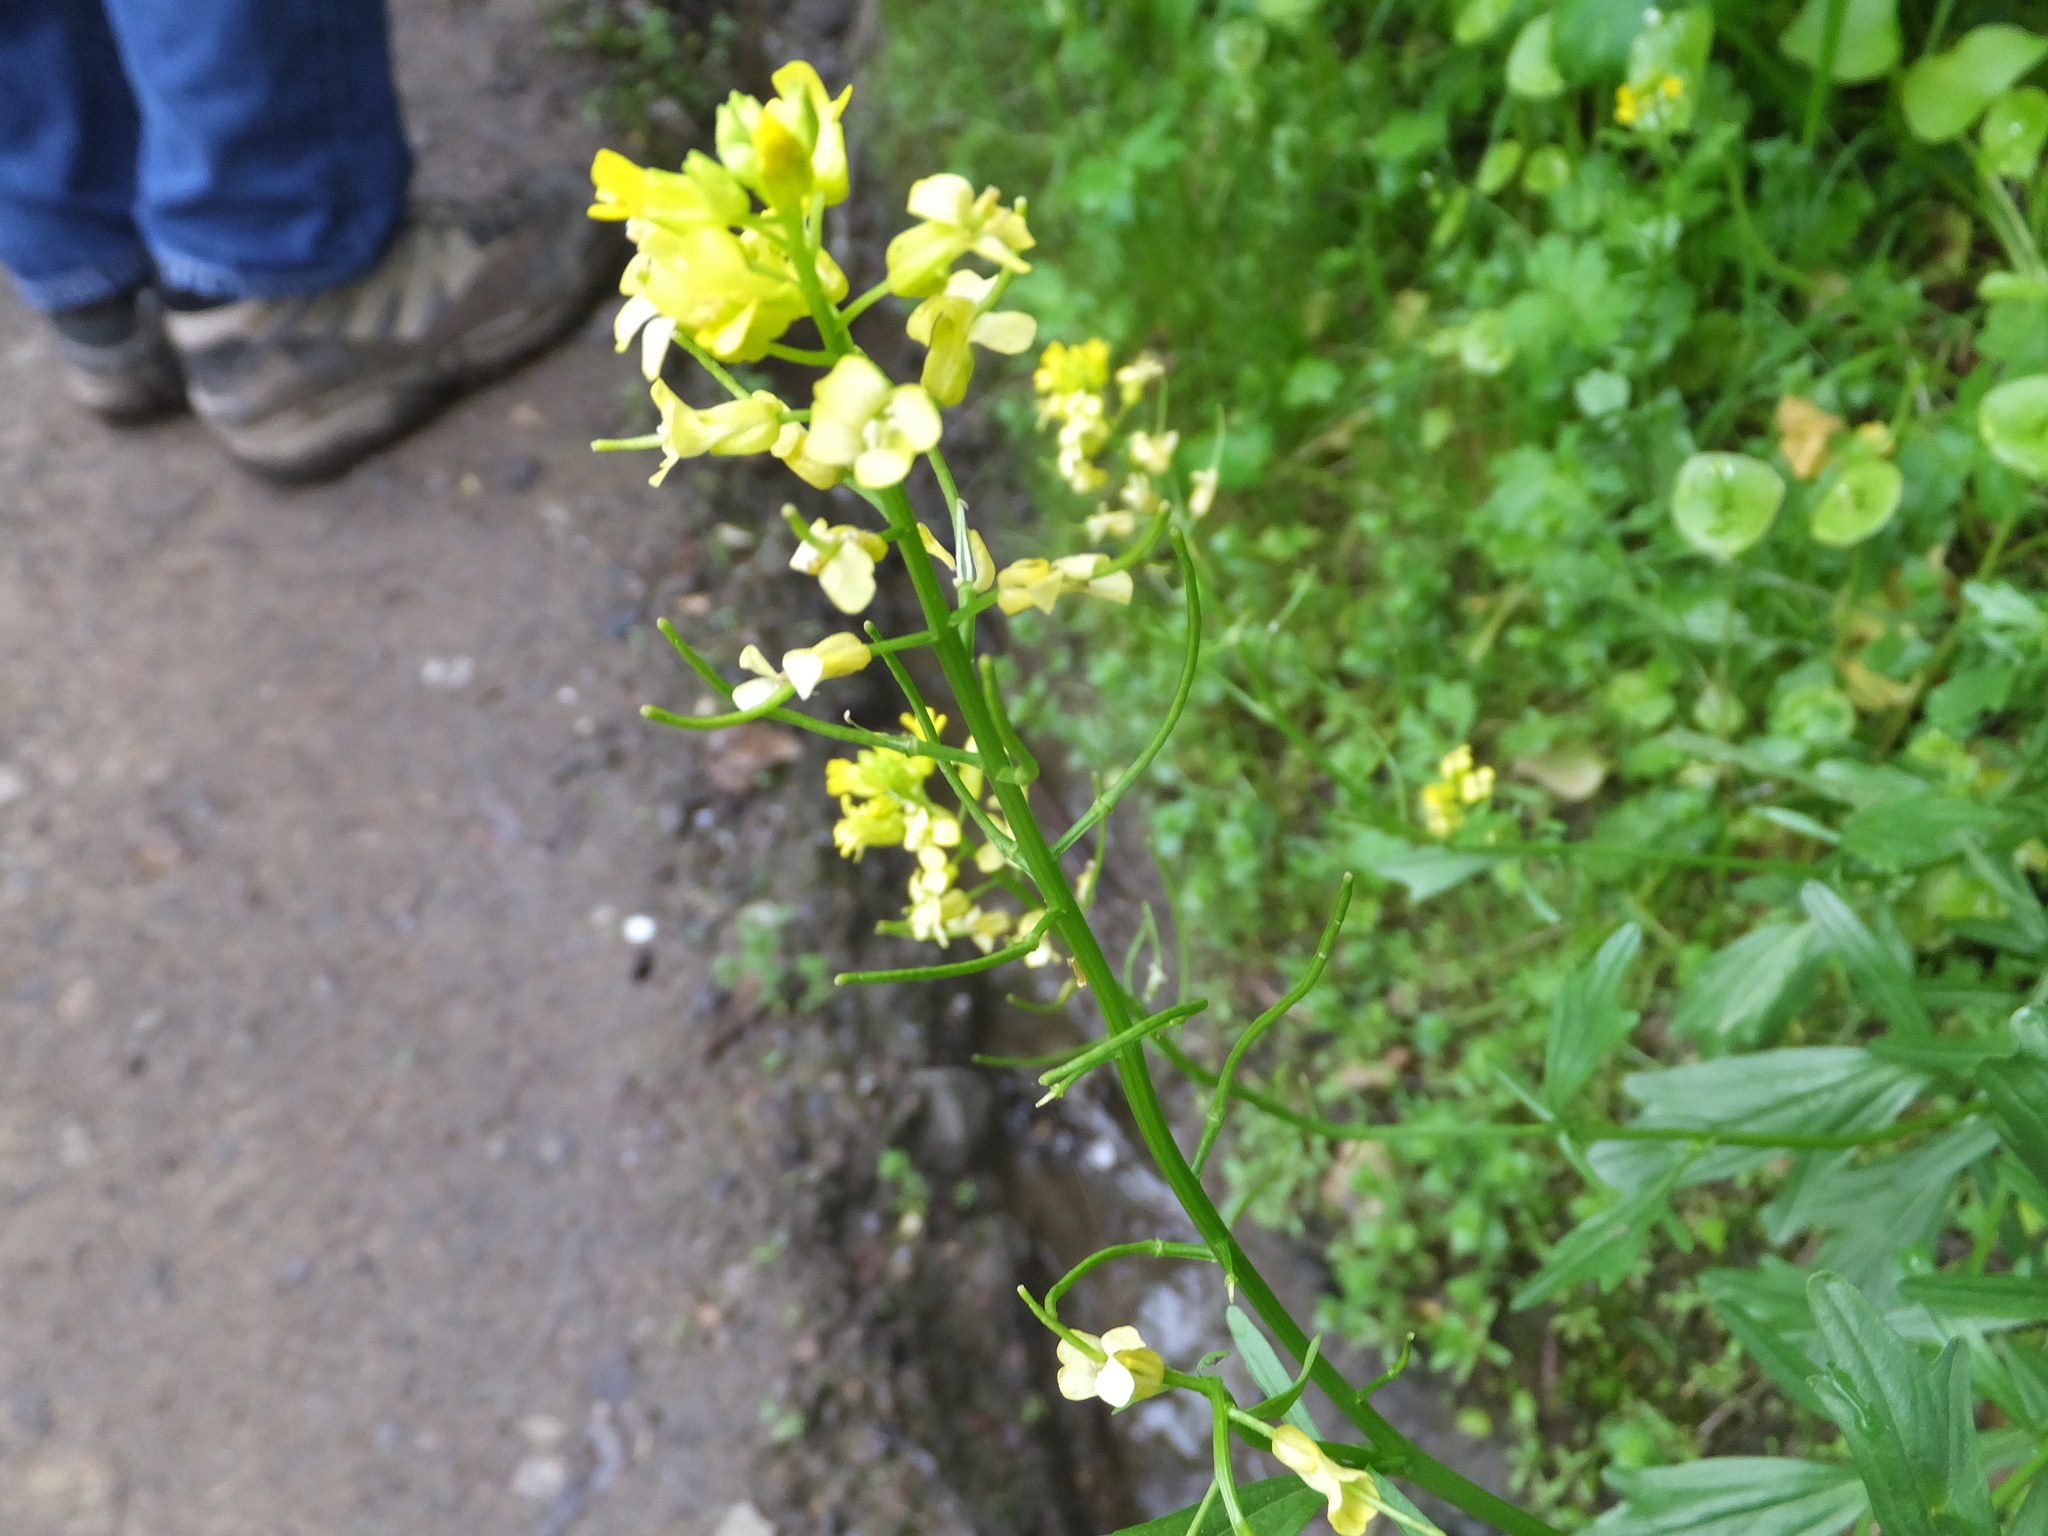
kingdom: Plantae
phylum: Tracheophyta
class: Magnoliopsida
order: Brassicales
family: Brassicaceae
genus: Barbarea
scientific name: Barbarea orthoceras
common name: American wintercress
